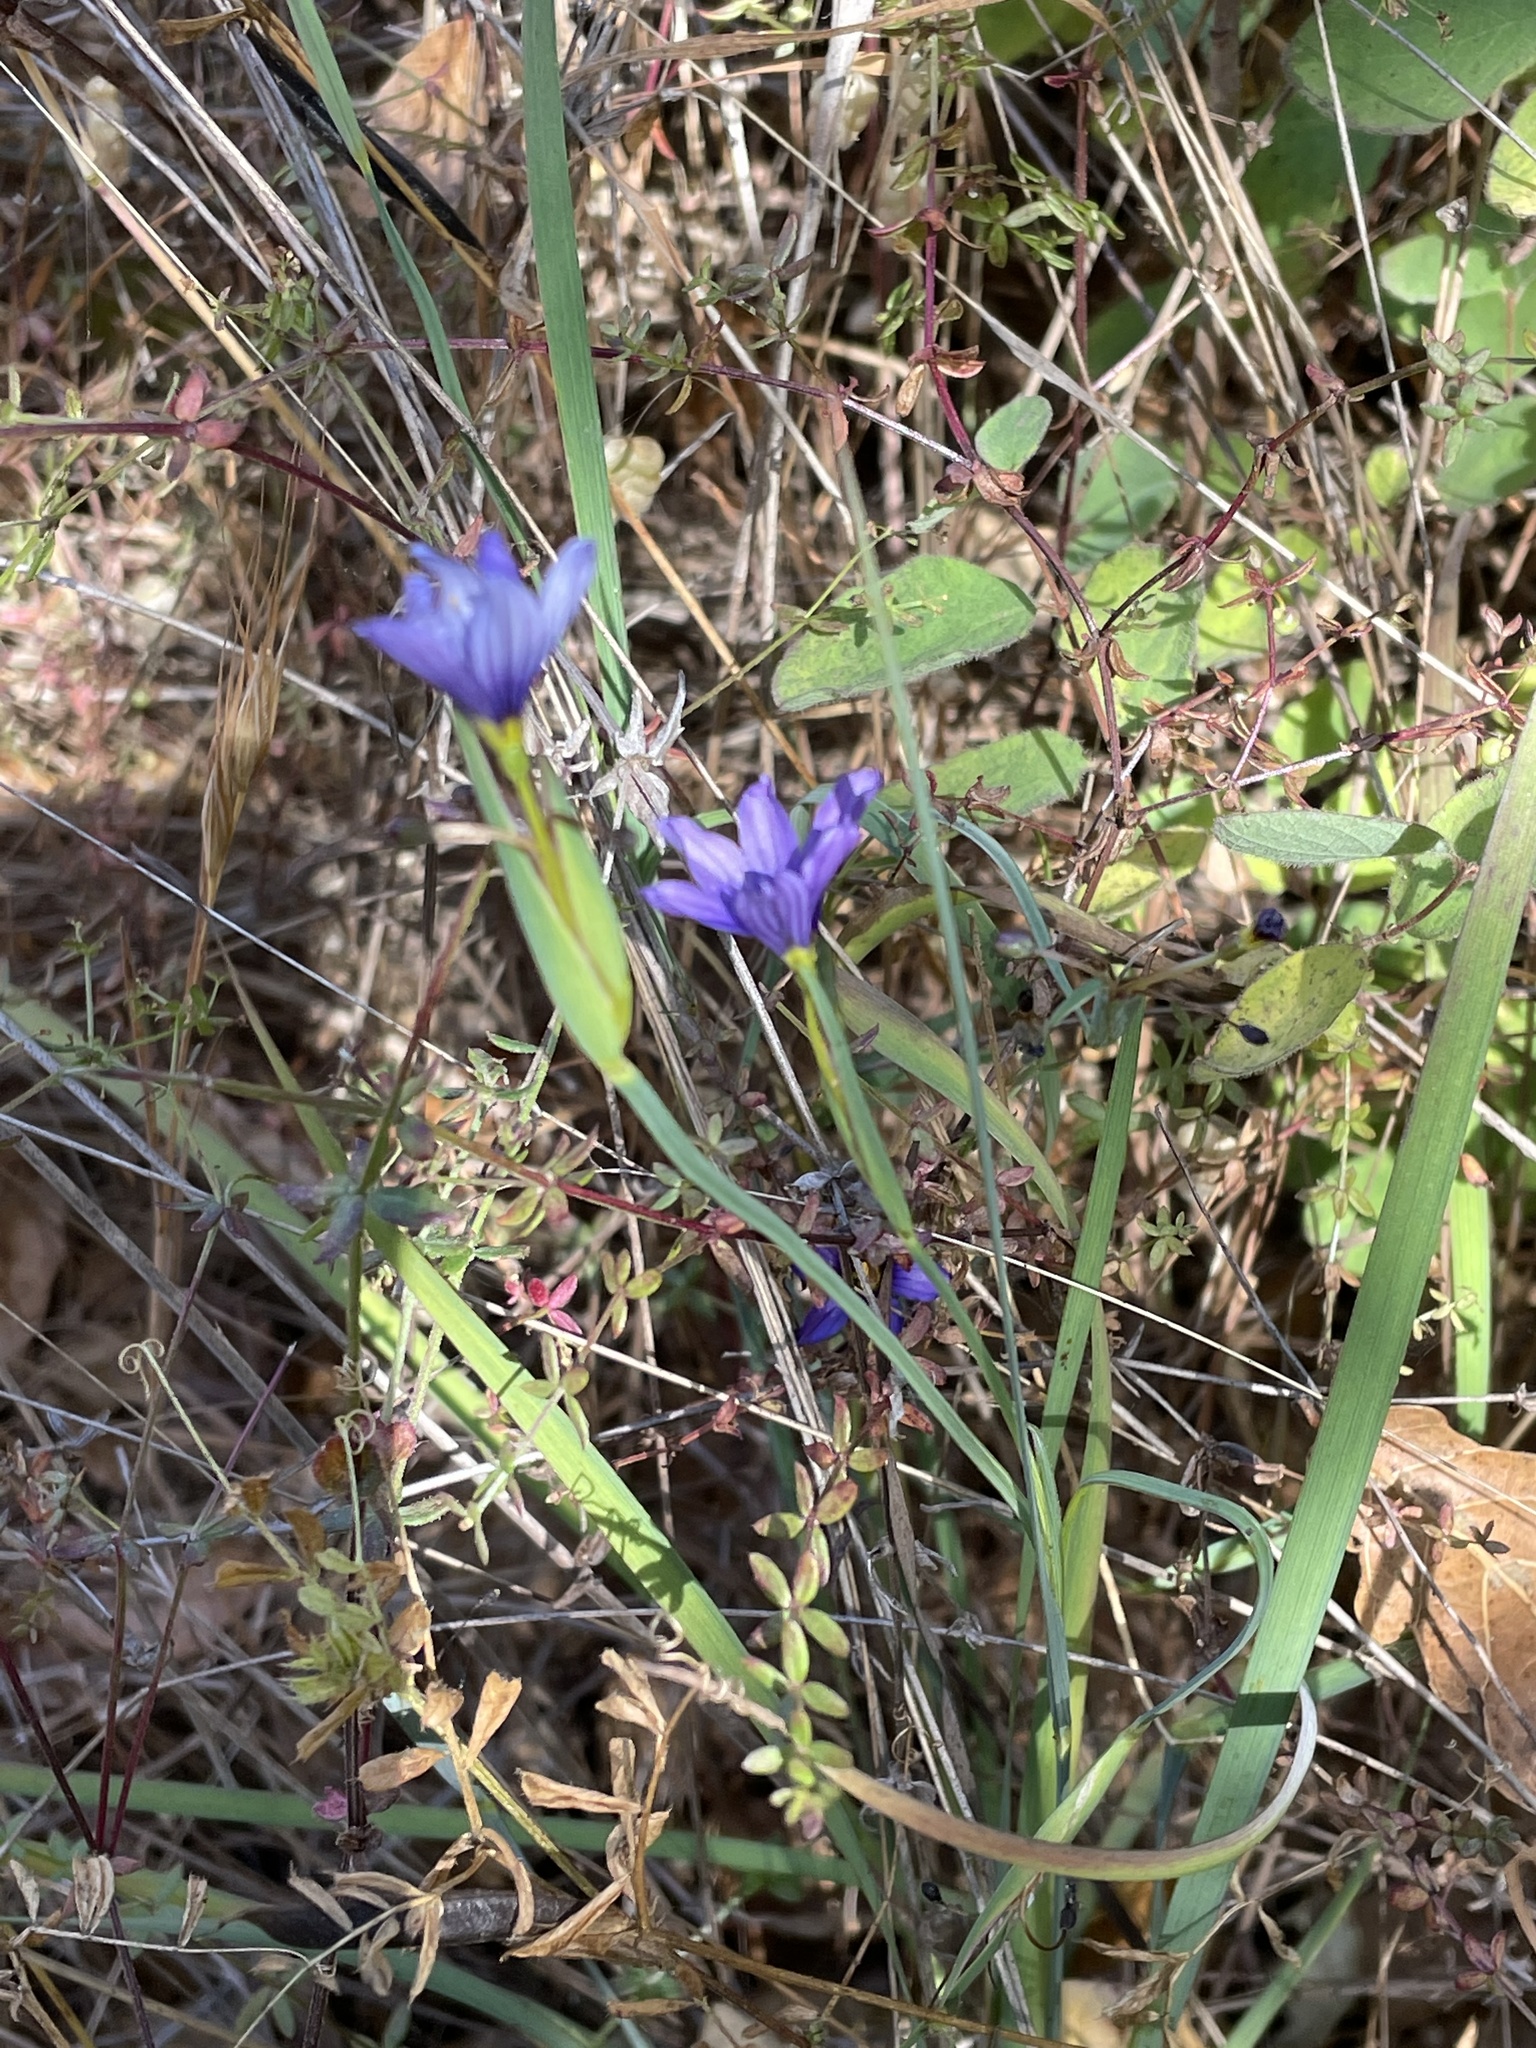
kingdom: Plantae
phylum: Tracheophyta
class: Liliopsida
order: Asparagales
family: Iridaceae
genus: Sisyrinchium
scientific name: Sisyrinchium bellum
